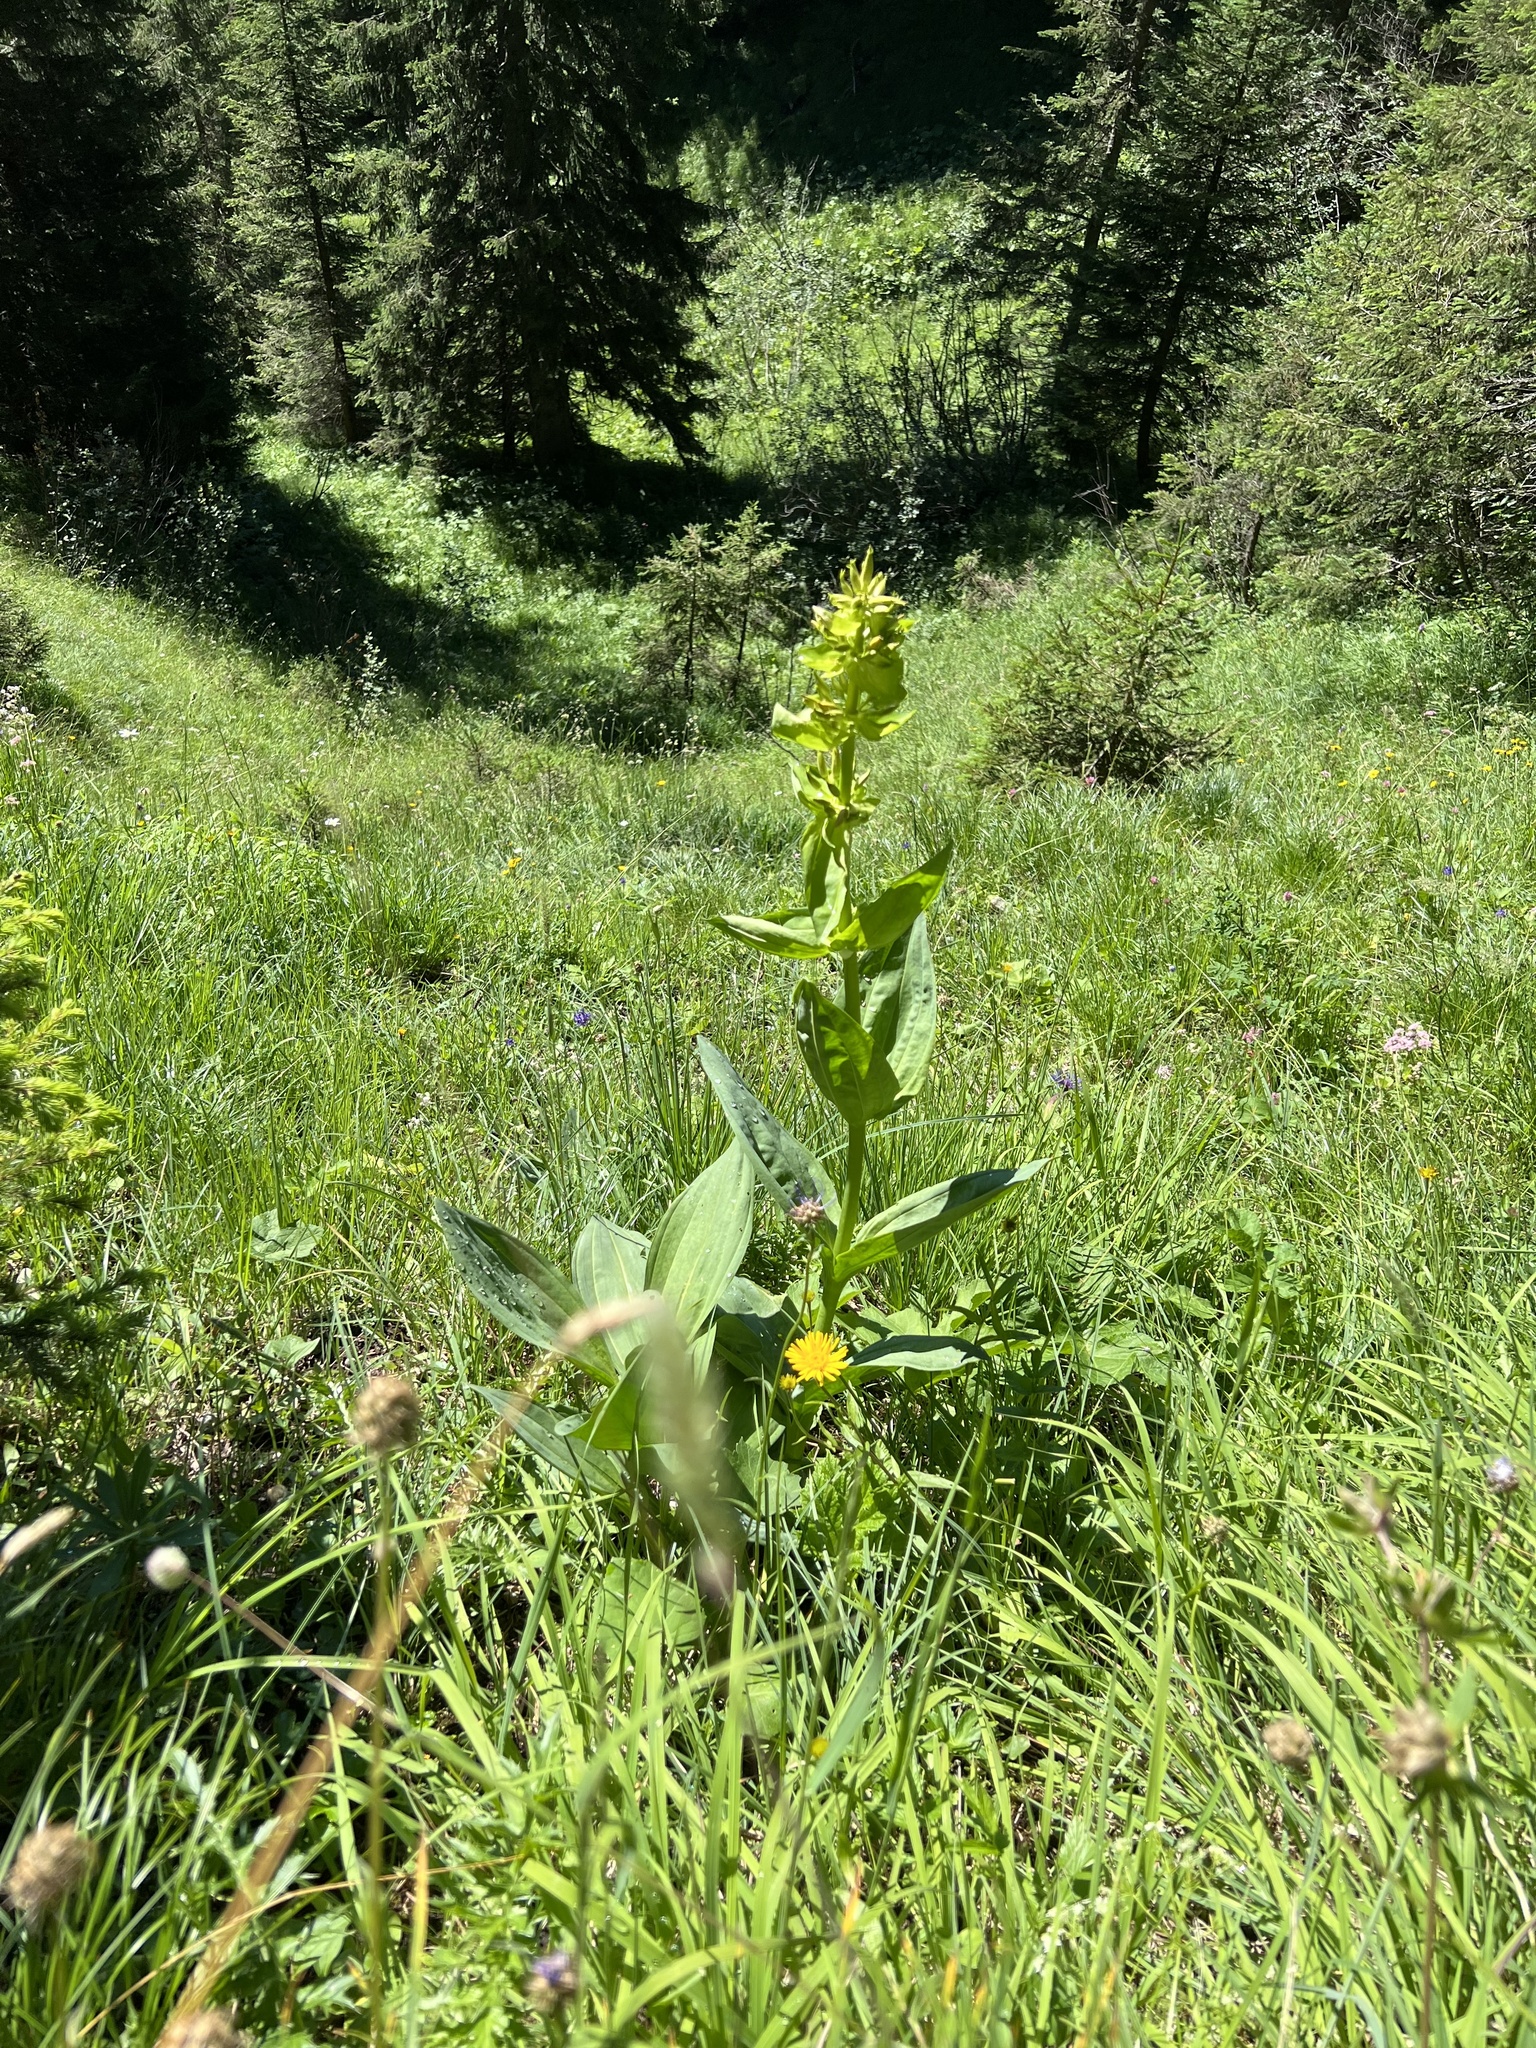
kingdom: Plantae
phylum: Tracheophyta
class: Magnoliopsida
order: Gentianales
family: Gentianaceae
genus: Gentiana
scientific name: Gentiana lutea
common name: Great yellow gentian
